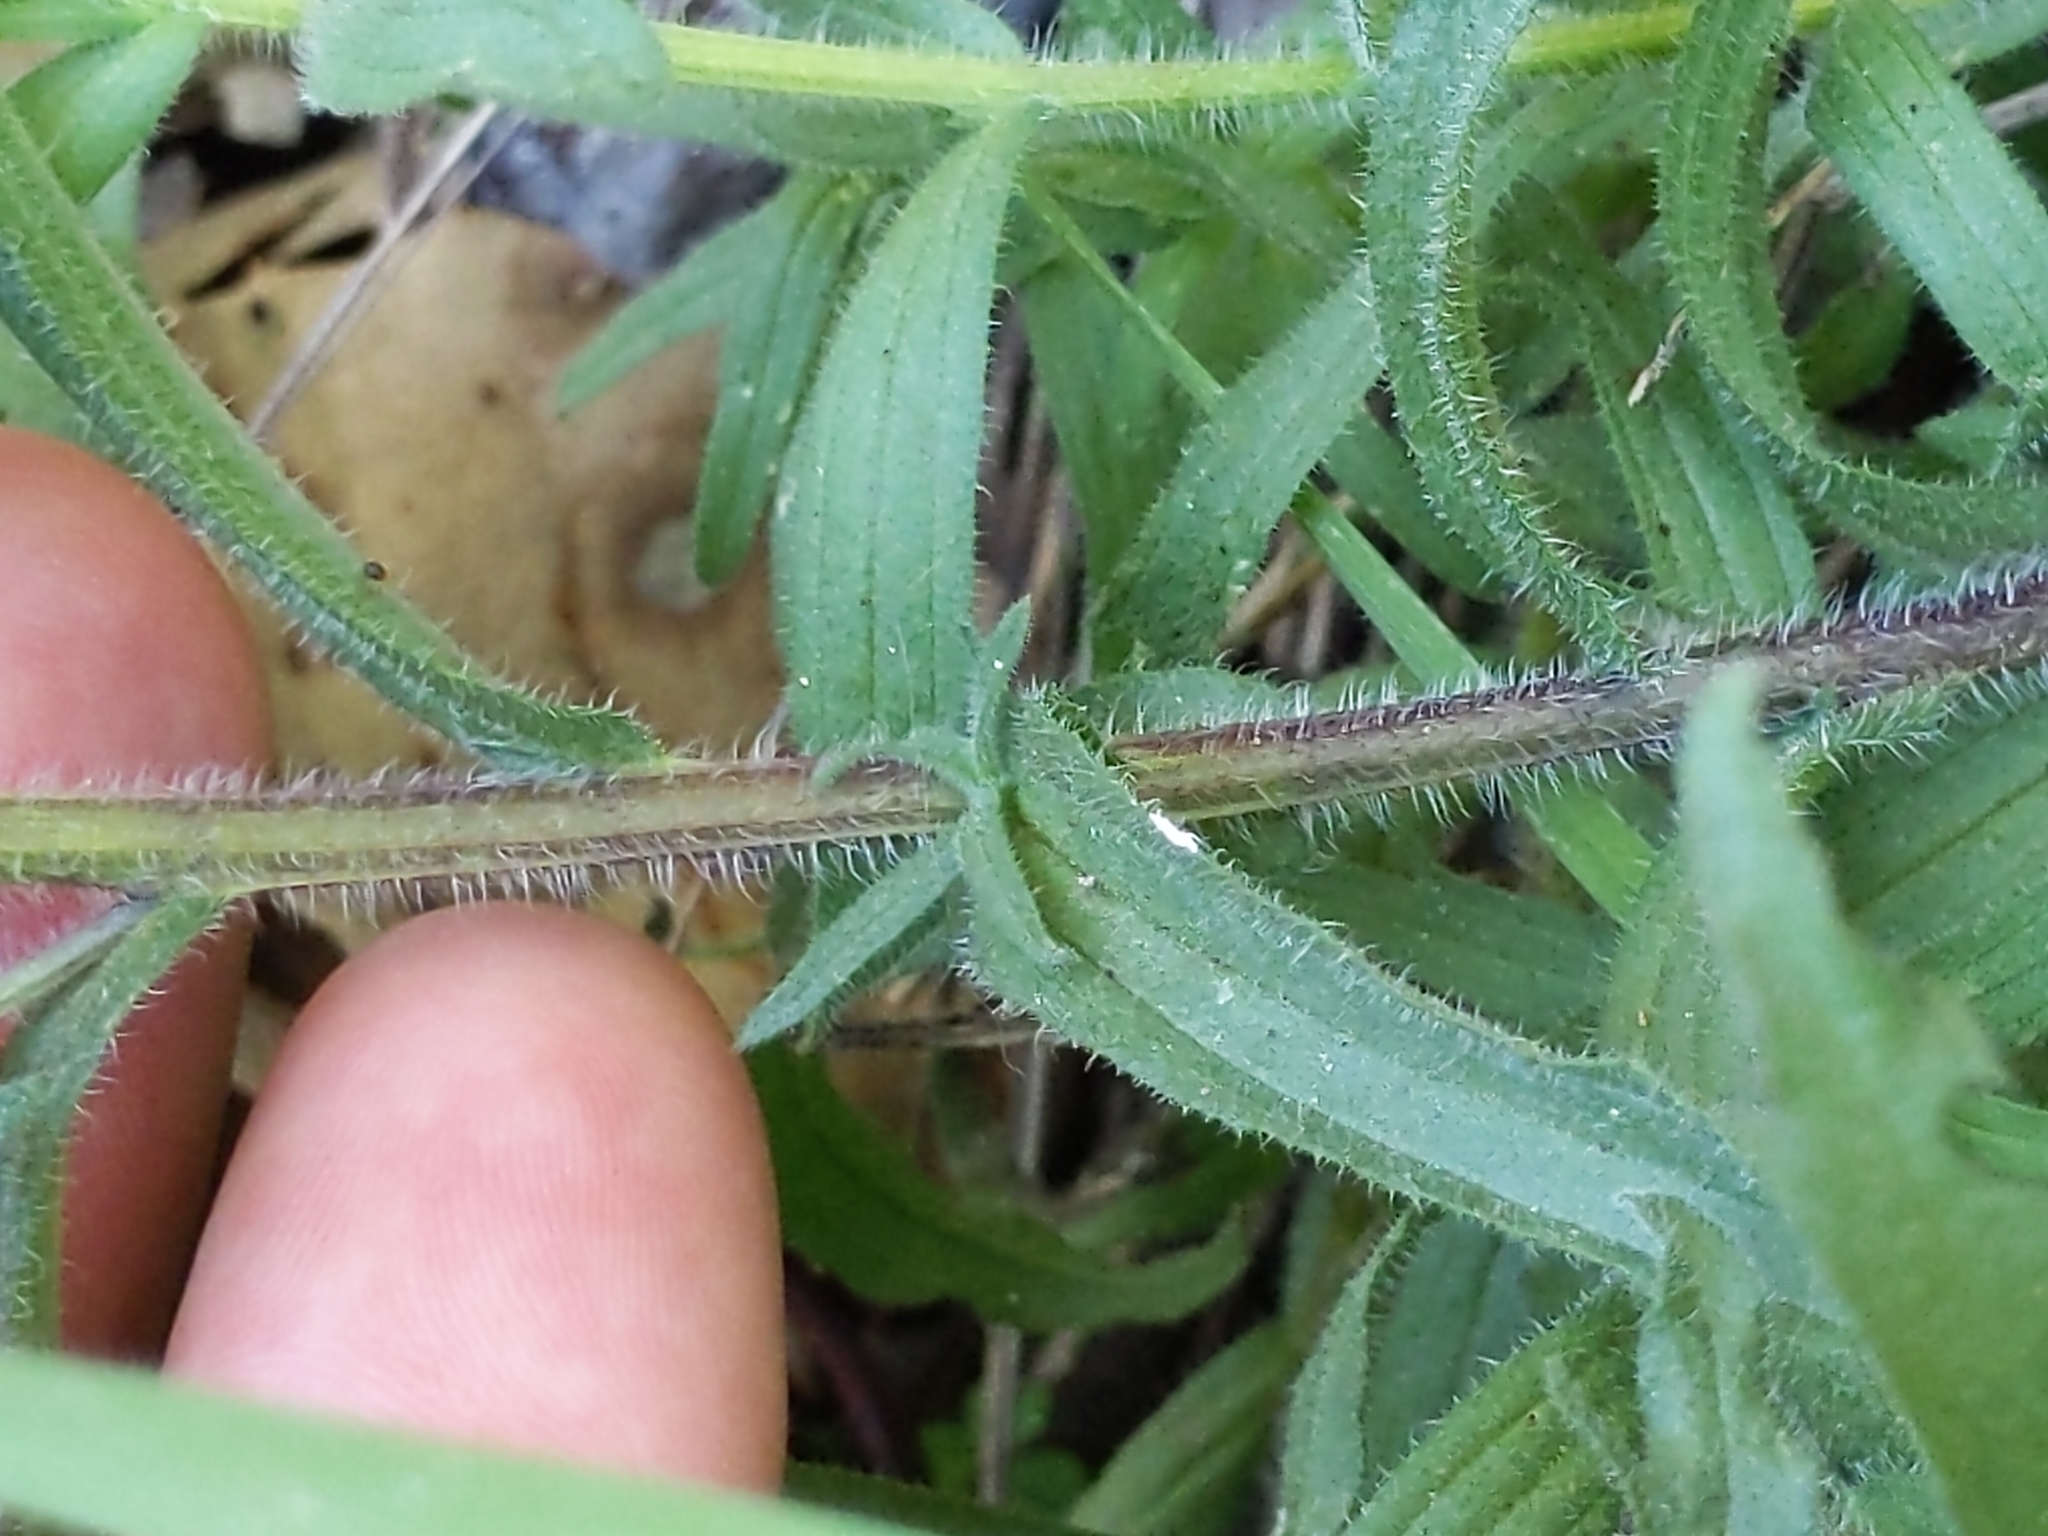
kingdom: Plantae
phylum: Tracheophyta
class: Magnoliopsida
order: Lamiales
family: Orobanchaceae
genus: Castilleja
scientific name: Castilleja affinis
